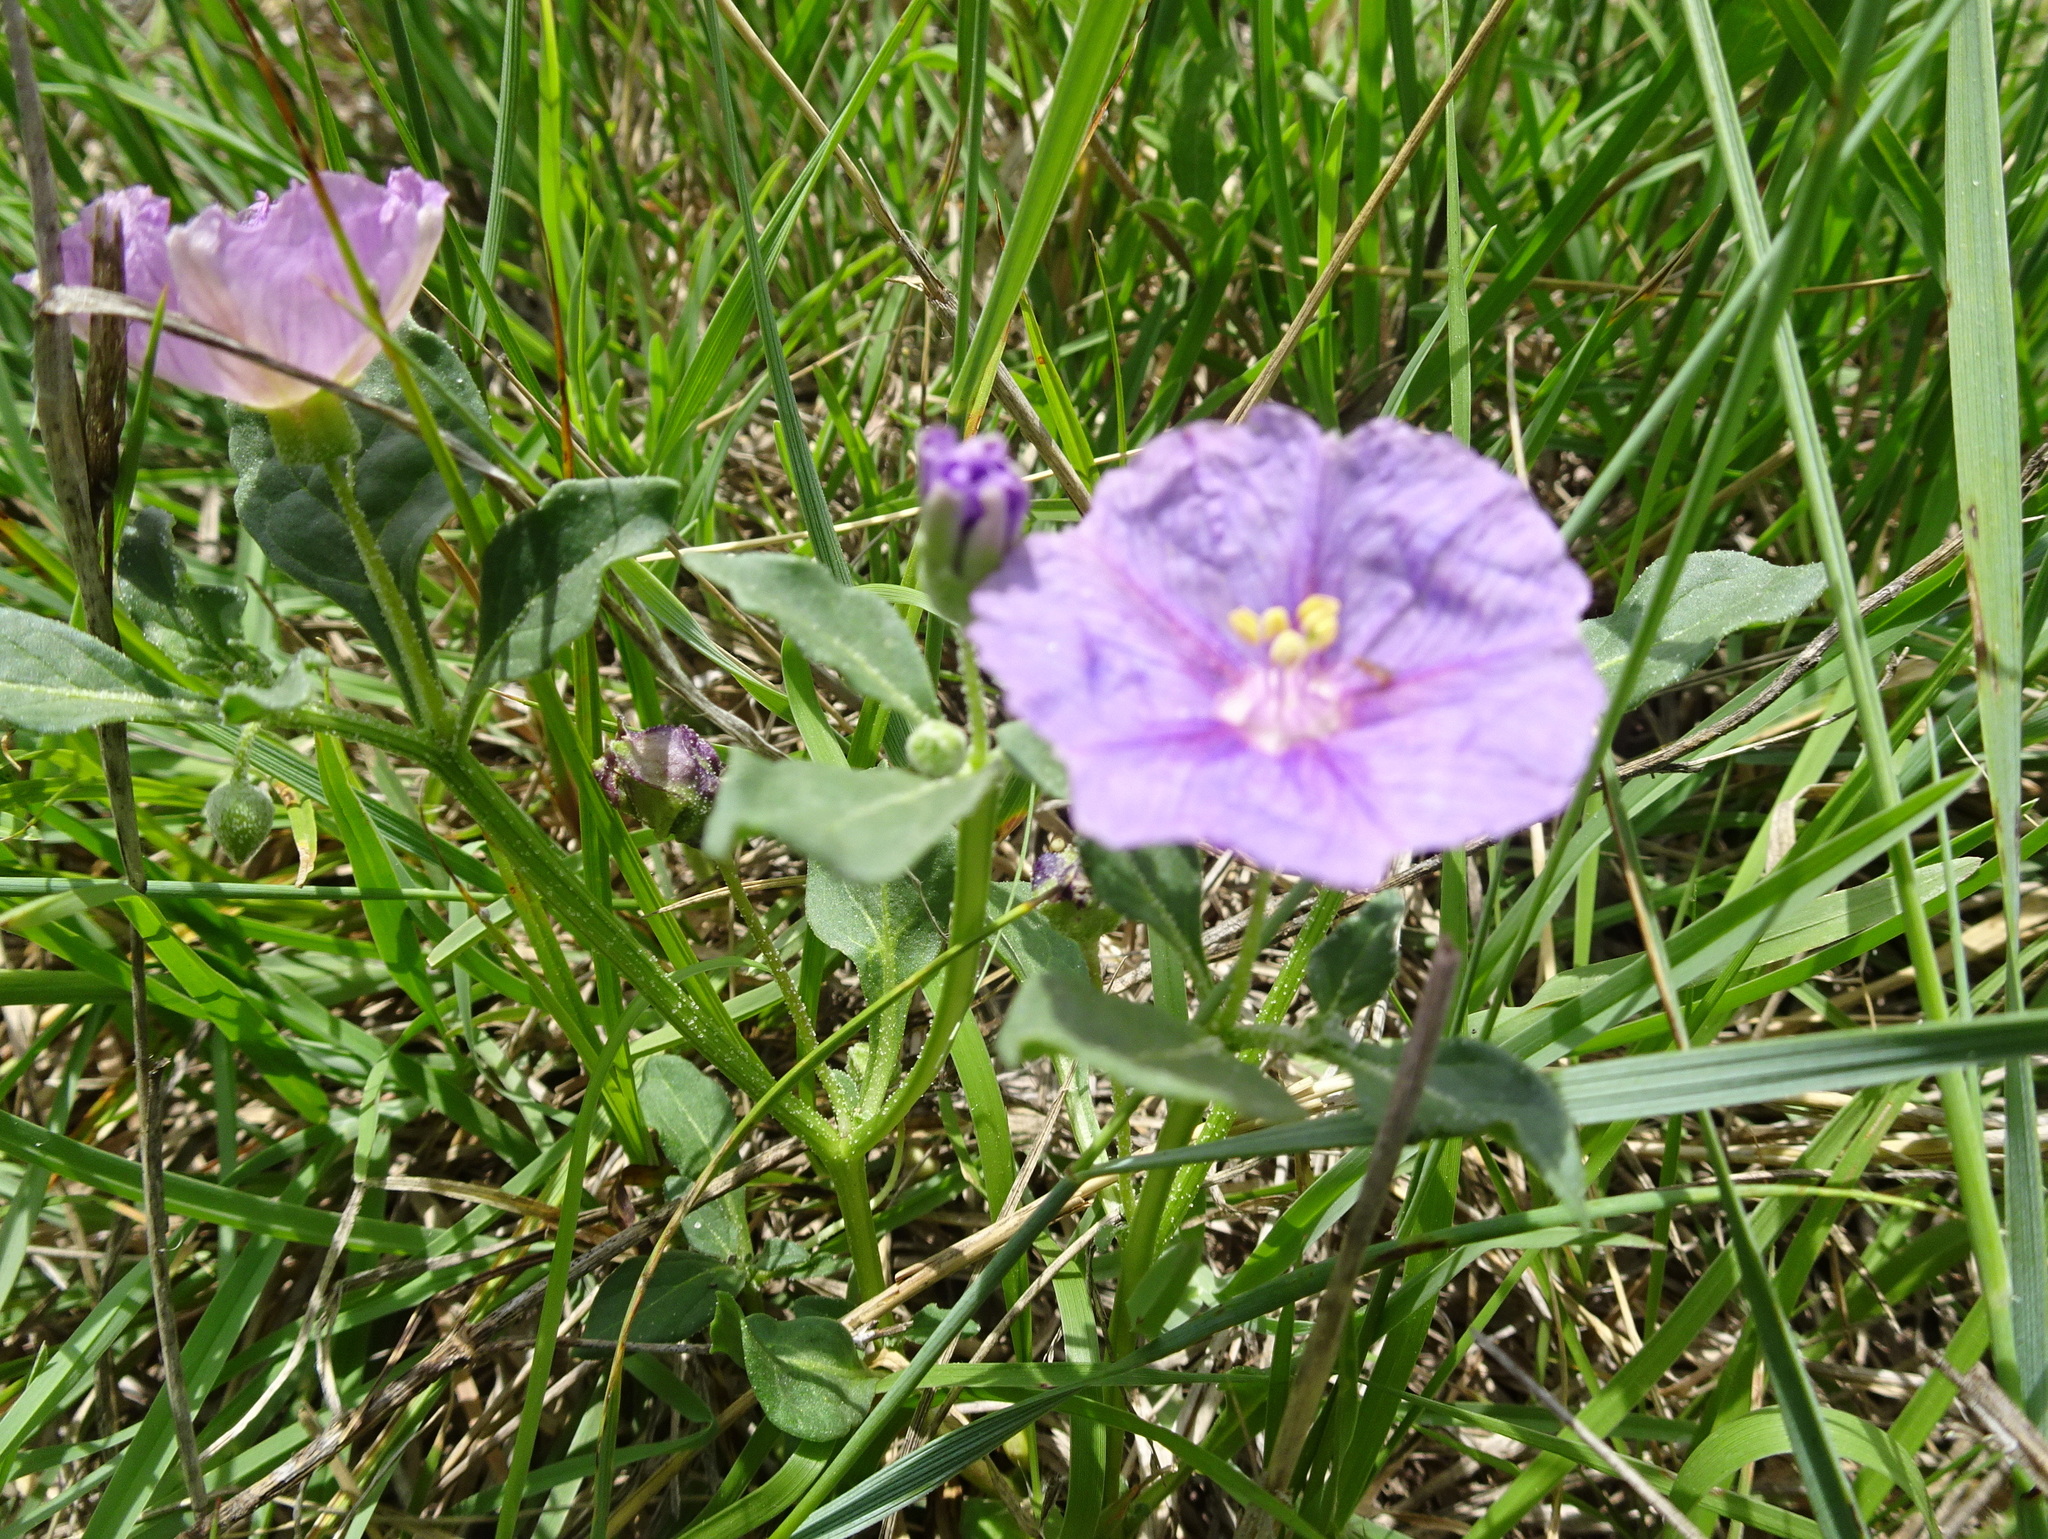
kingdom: Plantae
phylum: Tracheophyta
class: Magnoliopsida
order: Solanales
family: Solanaceae
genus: Quincula
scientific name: Quincula lobata
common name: Purple-ground-cherry
